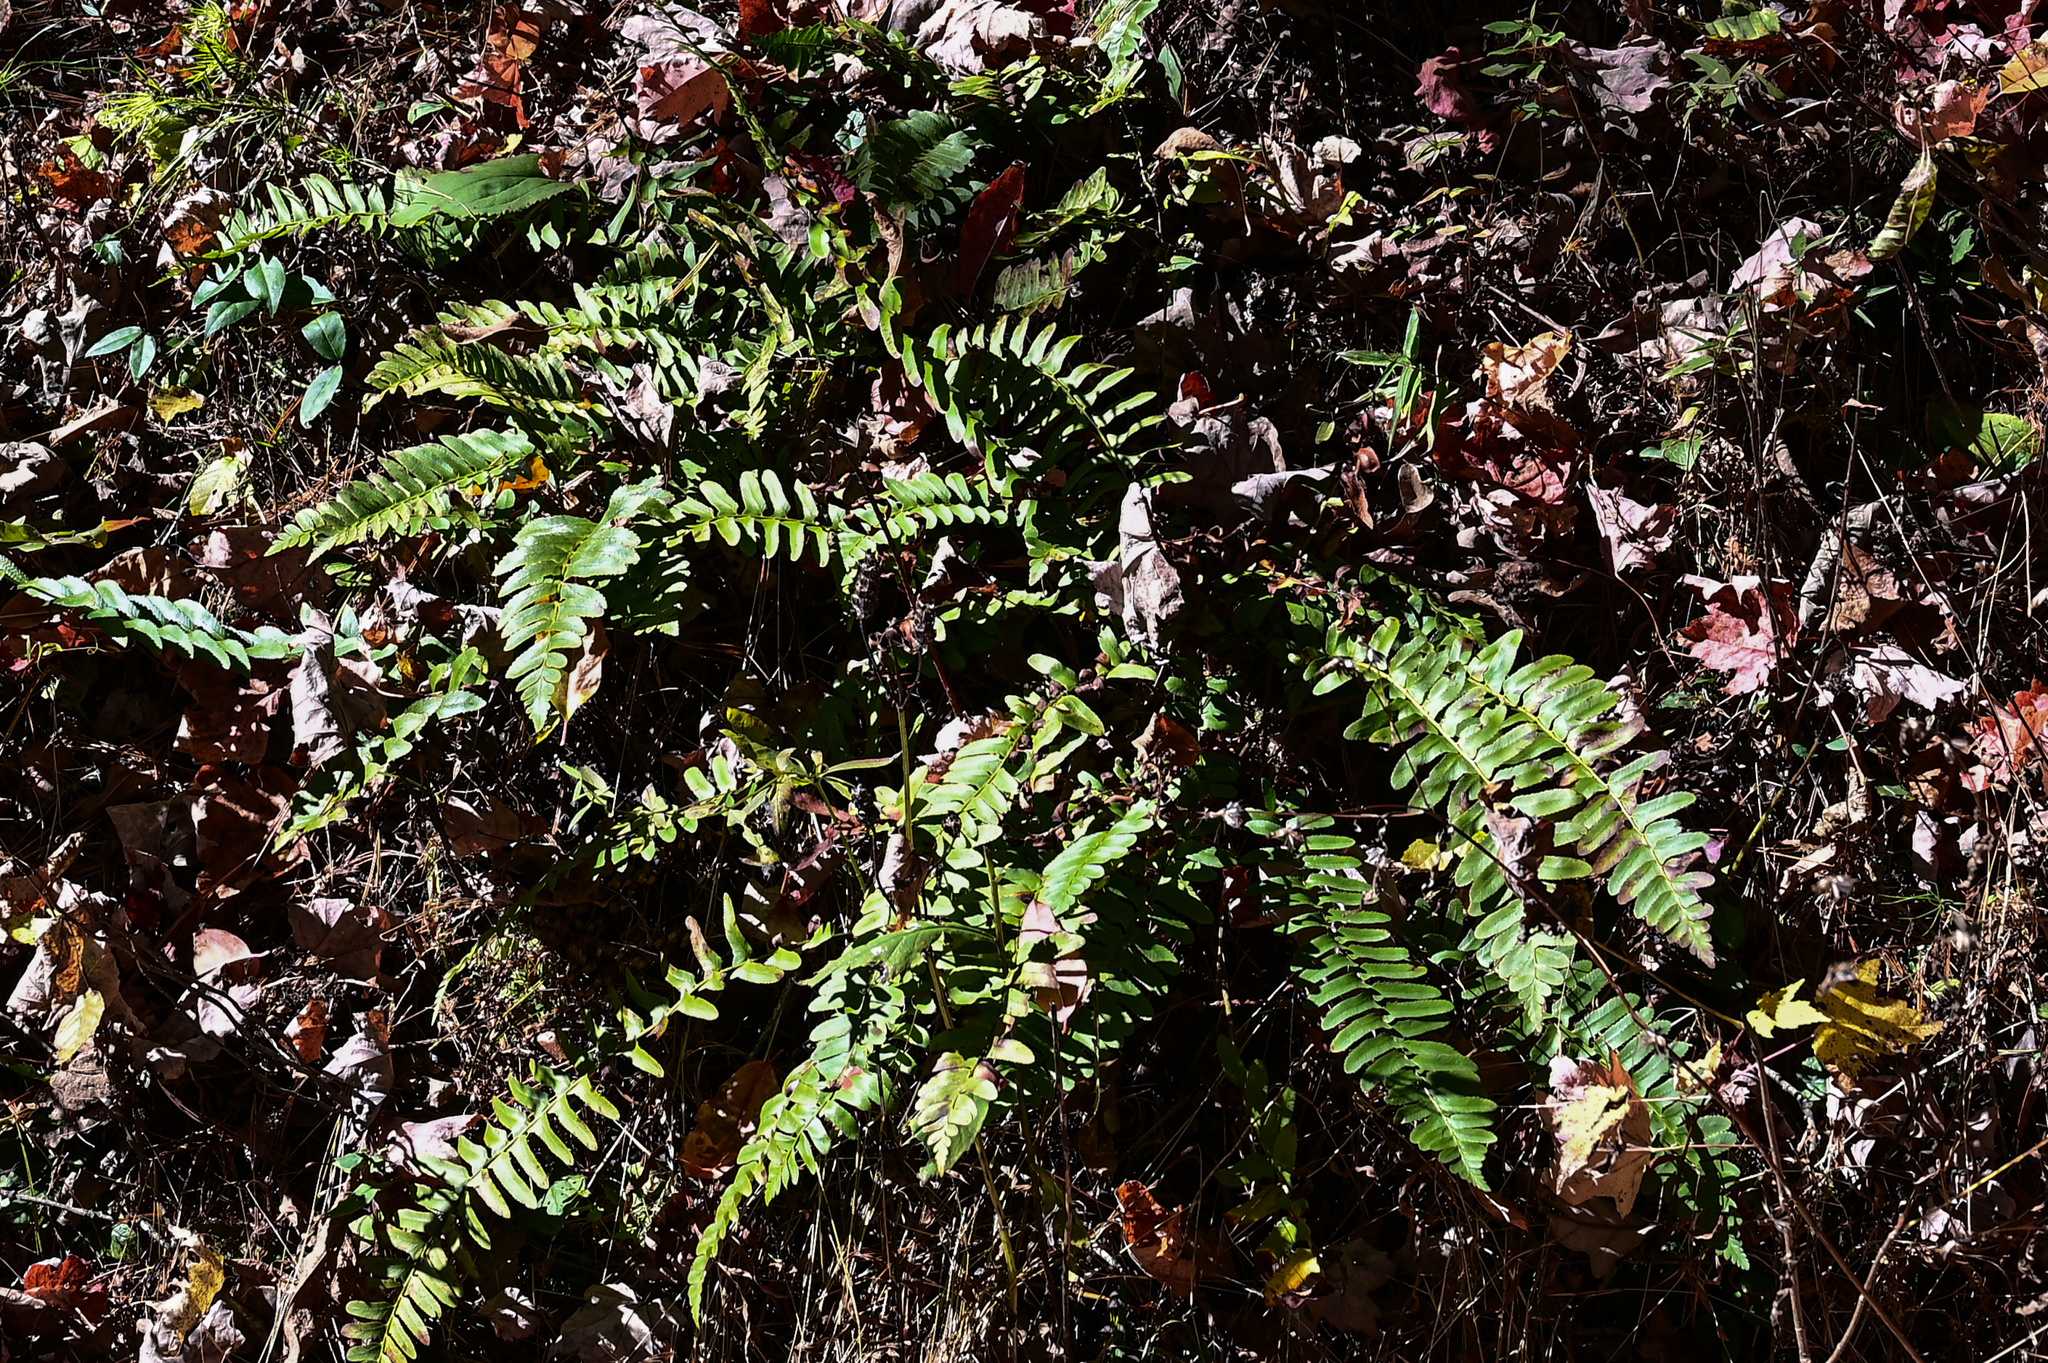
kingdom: Plantae
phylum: Tracheophyta
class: Polypodiopsida
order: Polypodiales
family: Dryopteridaceae
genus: Polystichum
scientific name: Polystichum acrostichoides
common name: Christmas fern
